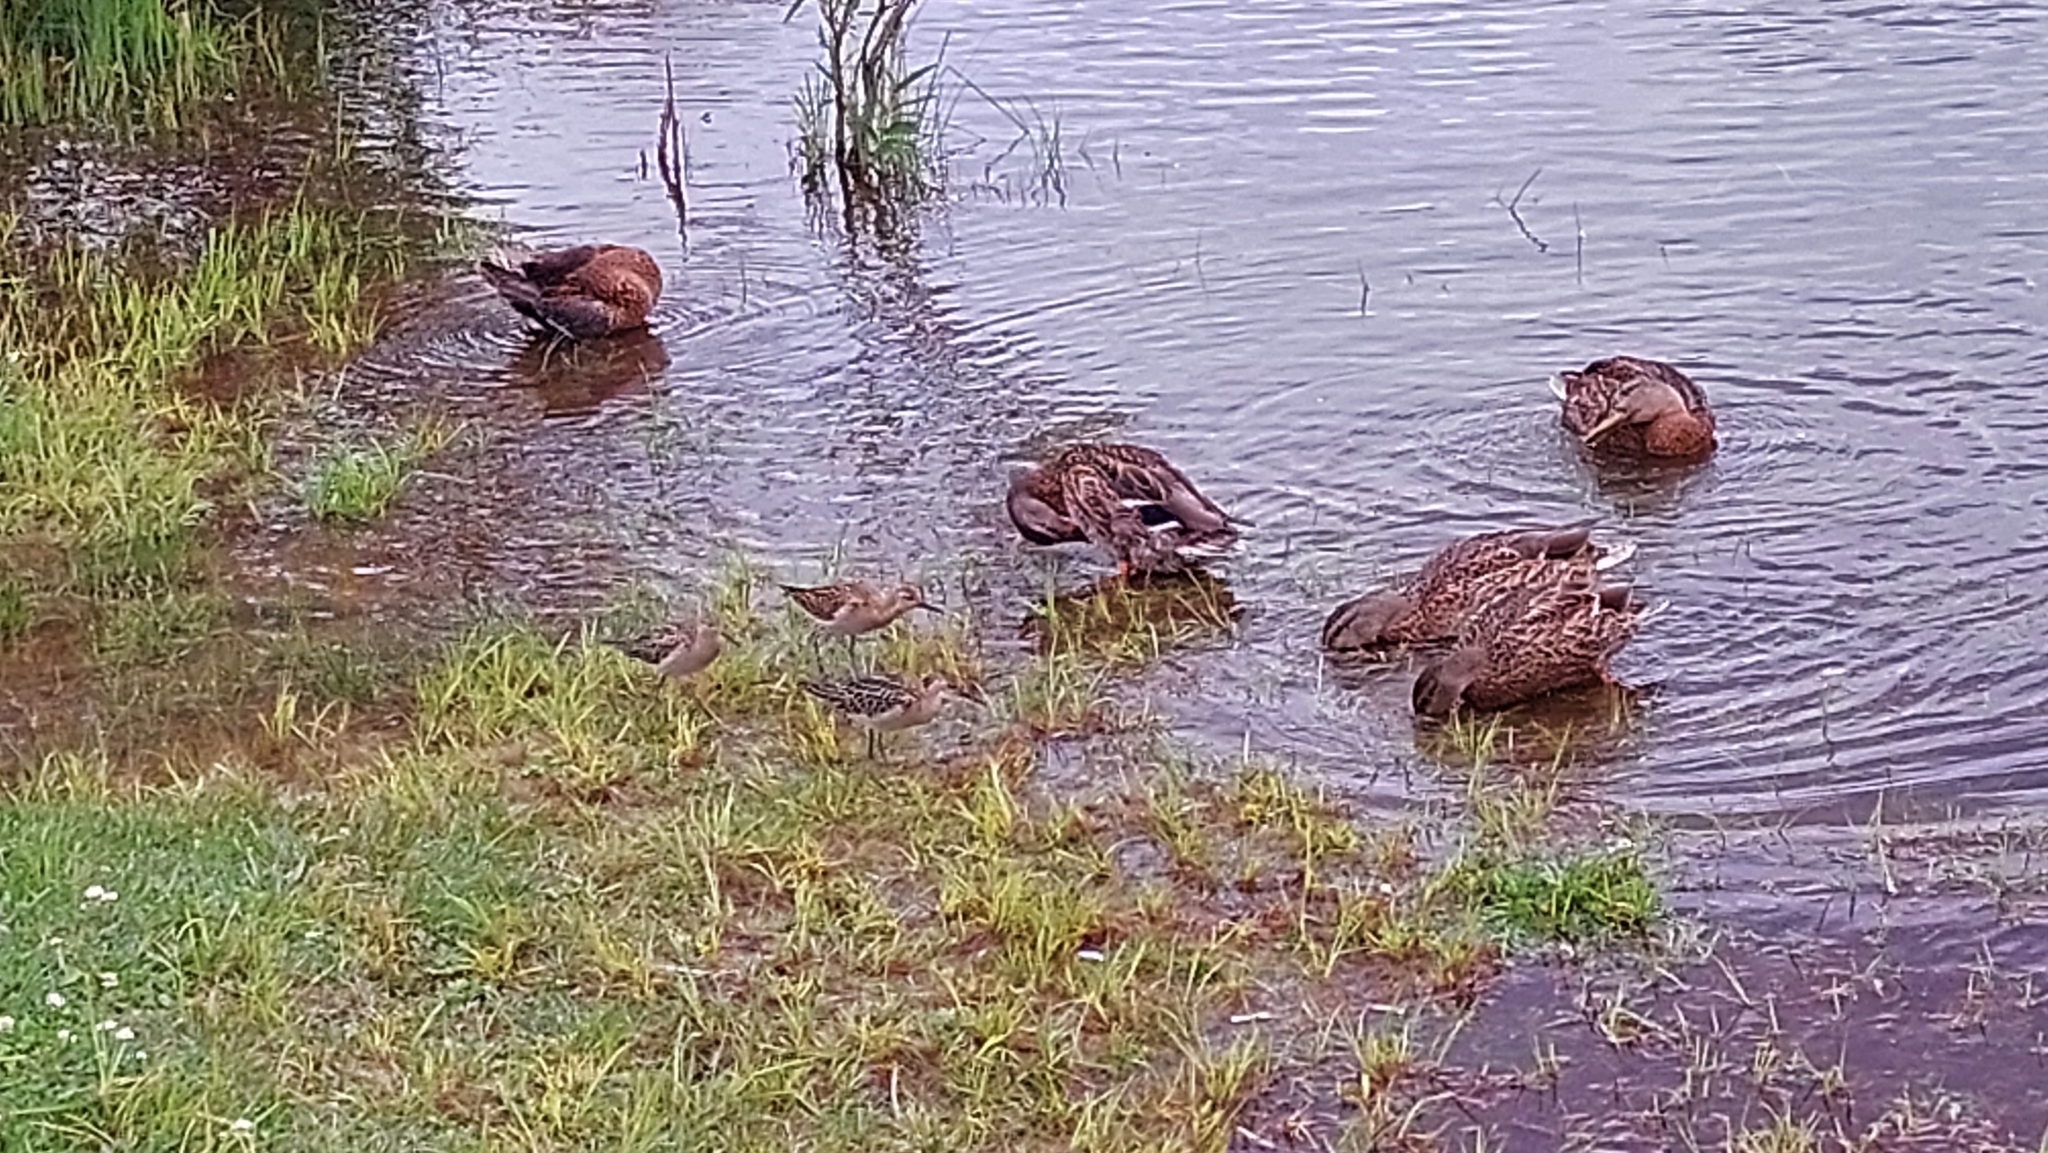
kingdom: Animalia
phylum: Chordata
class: Aves
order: Charadriiformes
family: Scolopacidae
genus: Calidris
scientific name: Calidris pugnax
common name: Ruff
